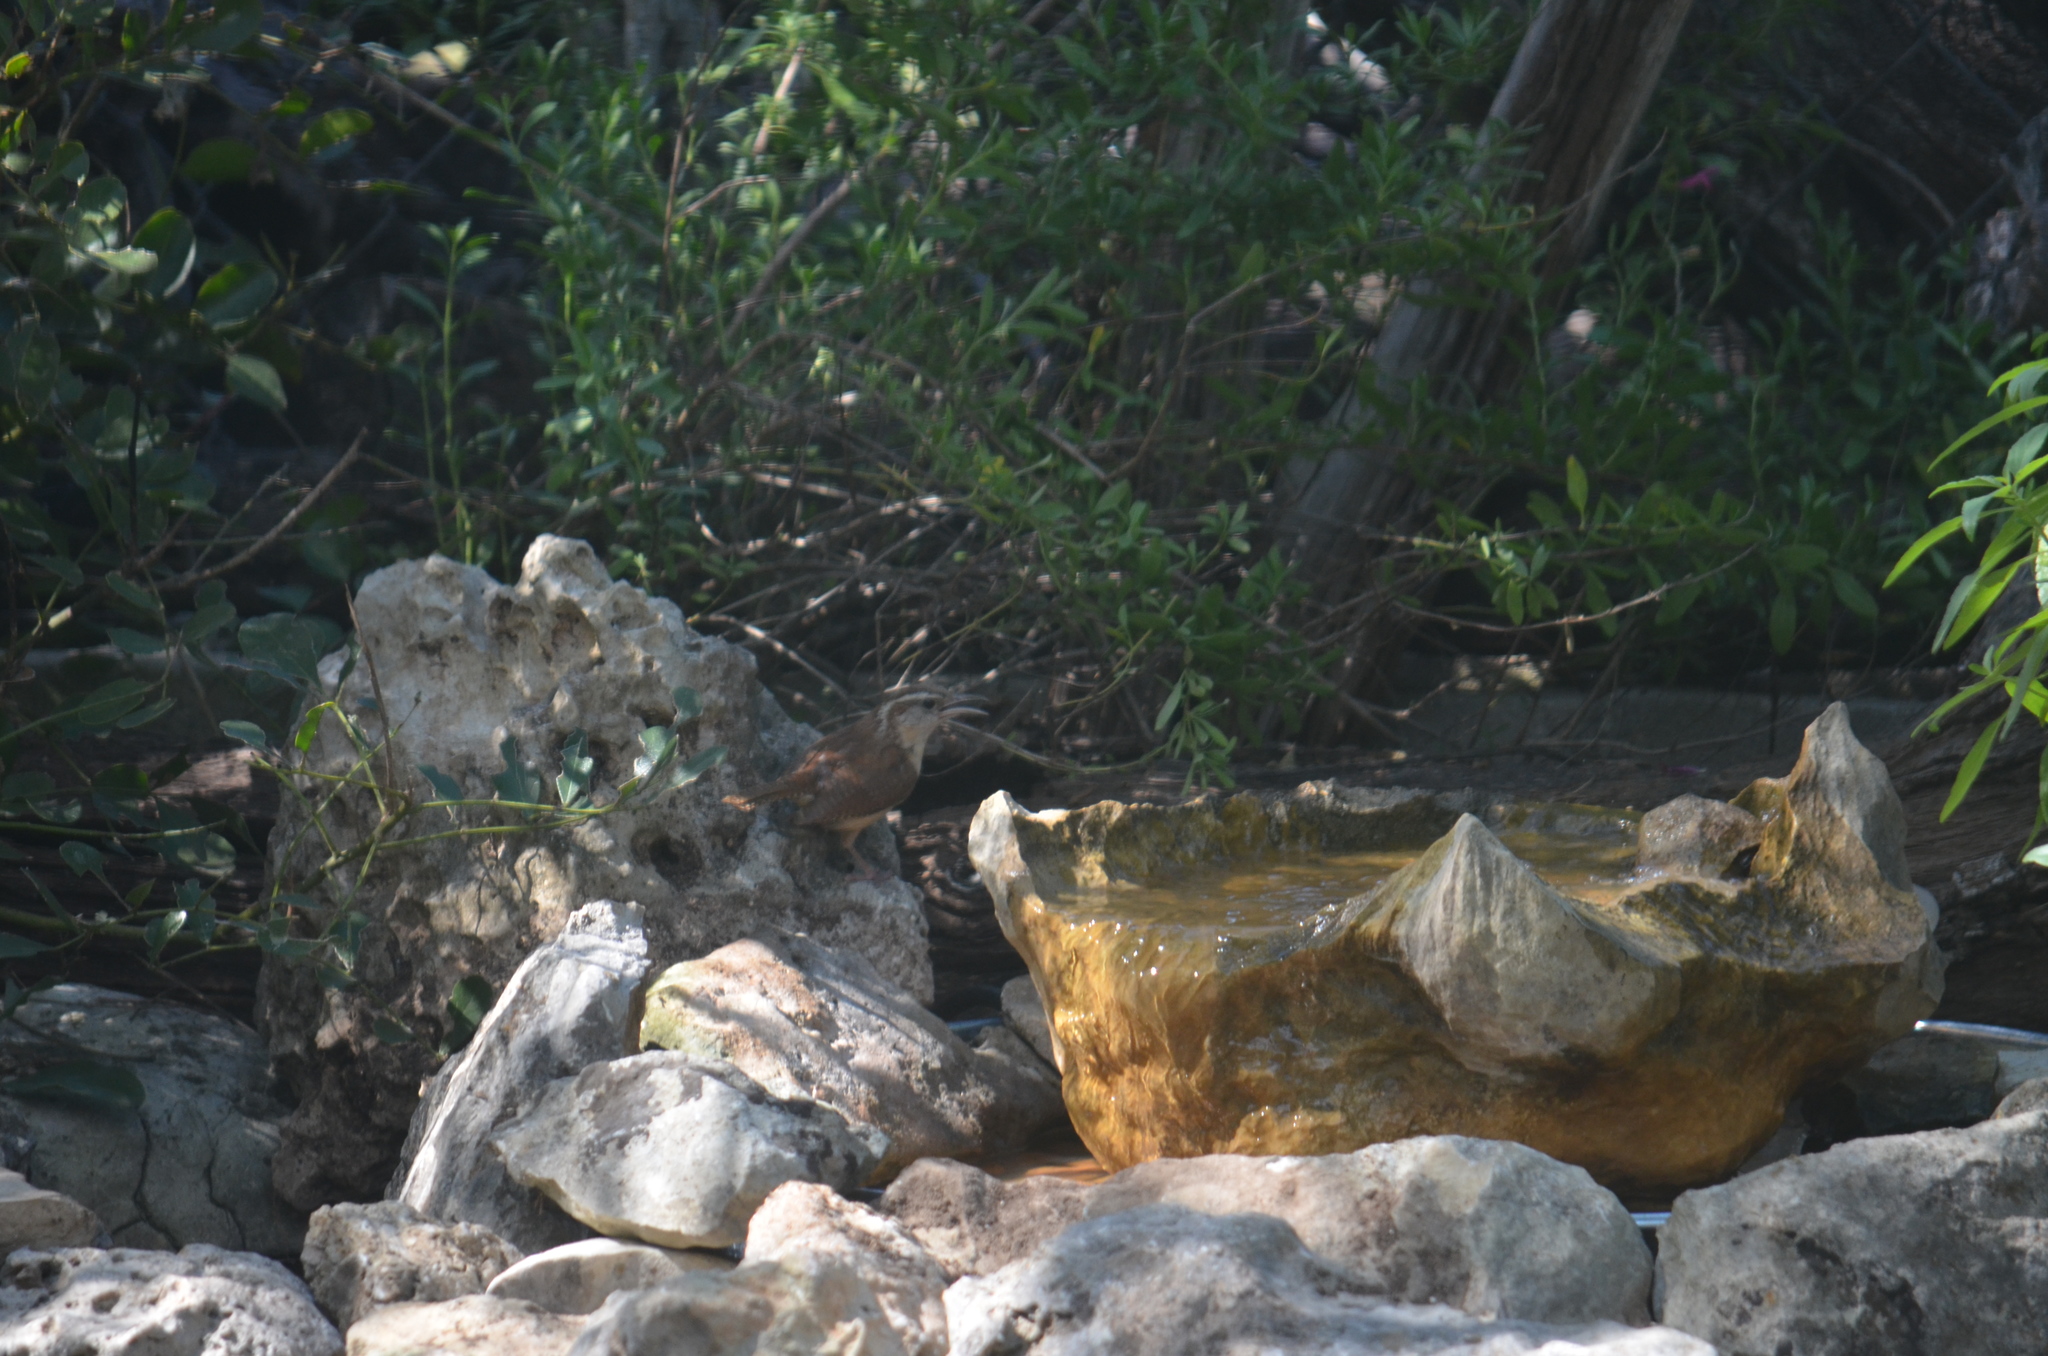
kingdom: Animalia
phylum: Chordata
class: Aves
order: Passeriformes
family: Troglodytidae
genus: Thryothorus
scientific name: Thryothorus ludovicianus
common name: Carolina wren
